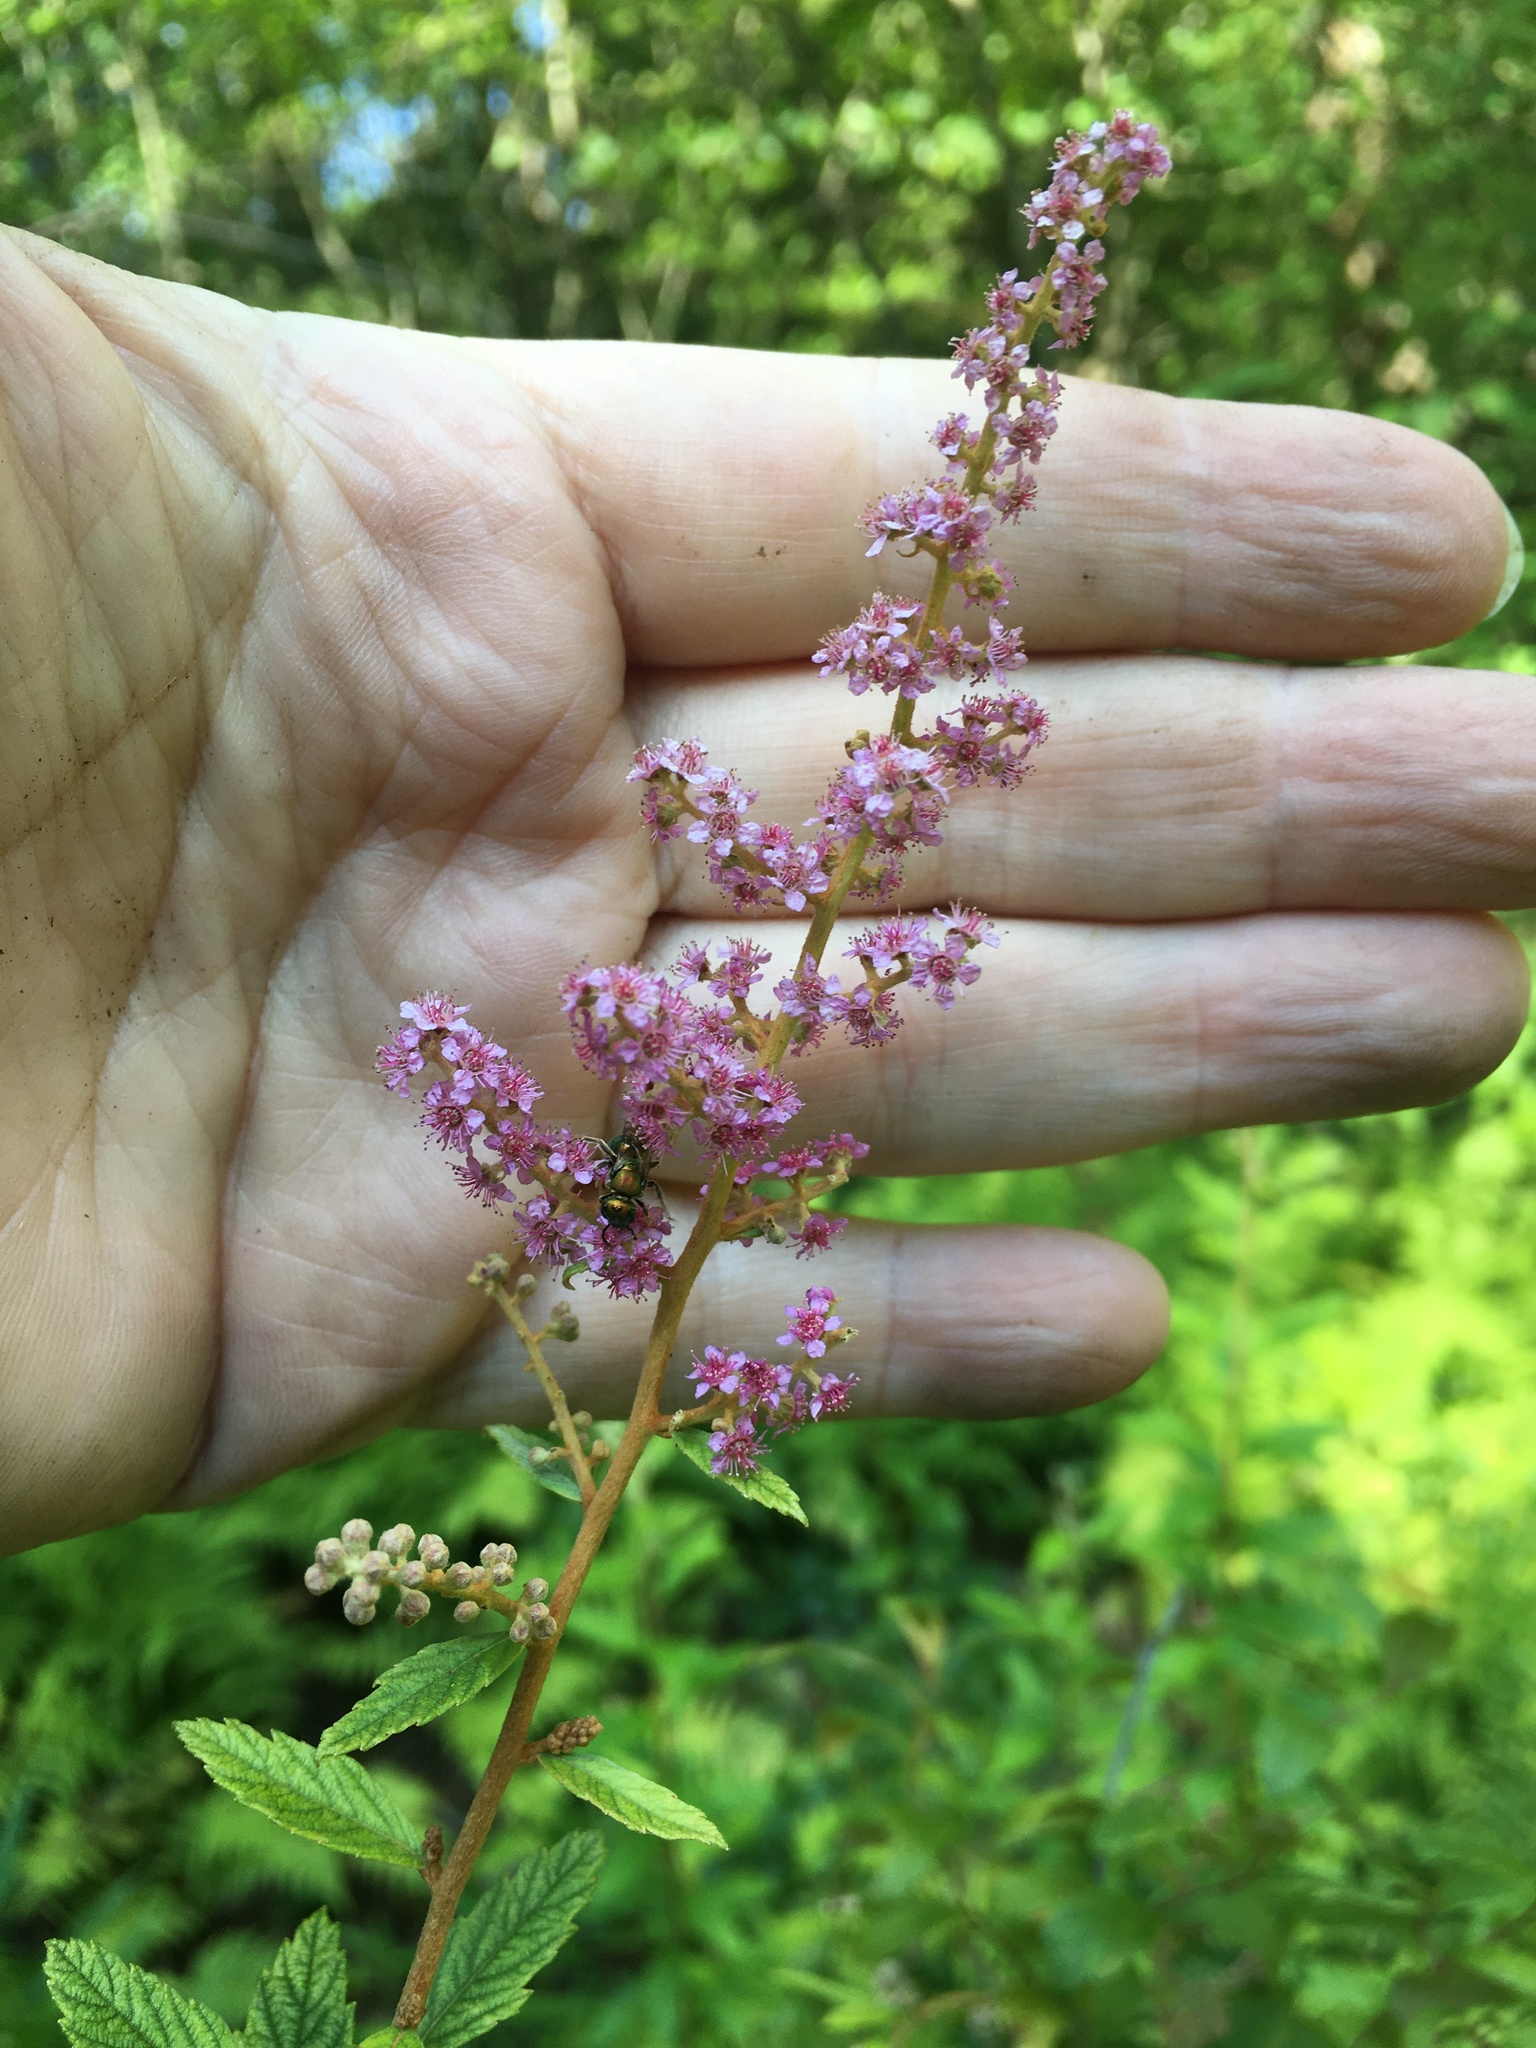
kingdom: Plantae
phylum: Tracheophyta
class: Magnoliopsida
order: Rosales
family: Rosaceae
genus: Spiraea
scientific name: Spiraea tomentosa
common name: Hardhack
